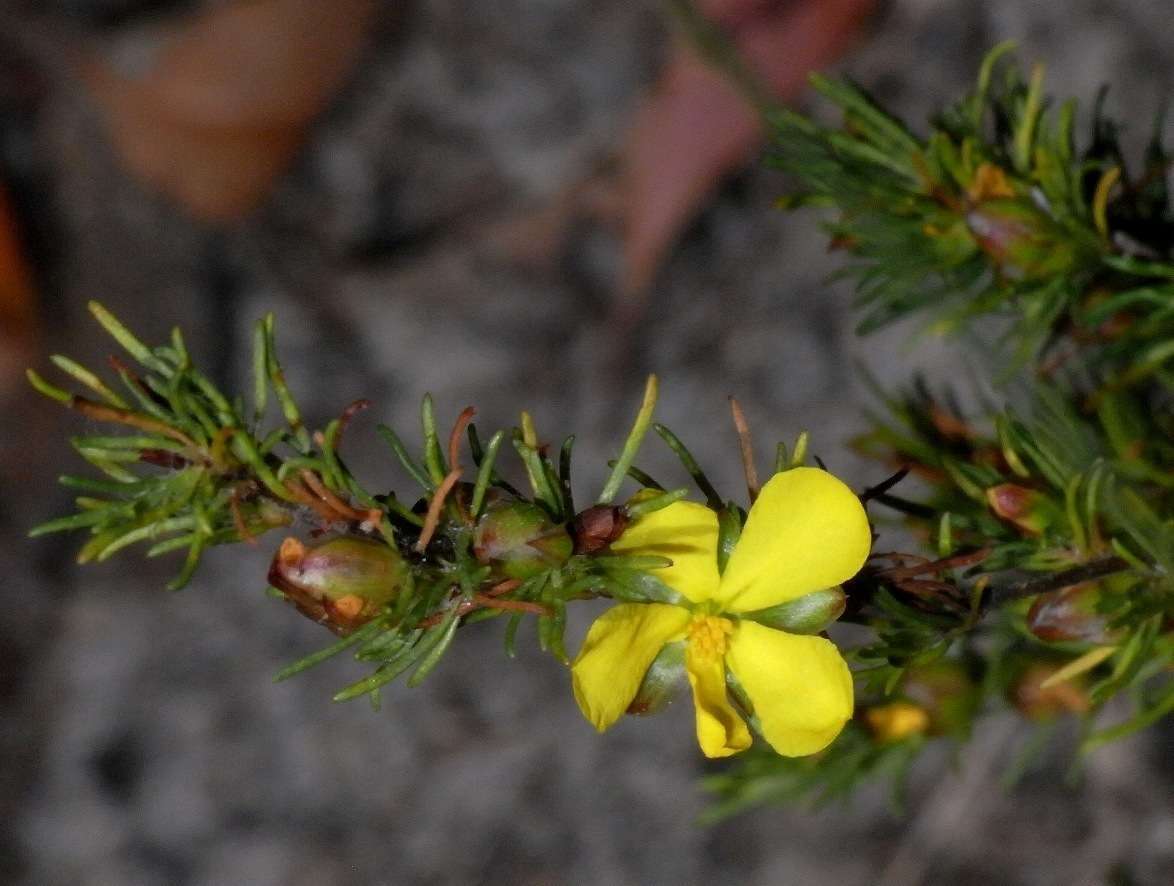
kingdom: Plantae
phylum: Tracheophyta
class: Magnoliopsida
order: Dilleniales
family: Dilleniaceae
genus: Hibbertia
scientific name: Hibbertia prostrata
